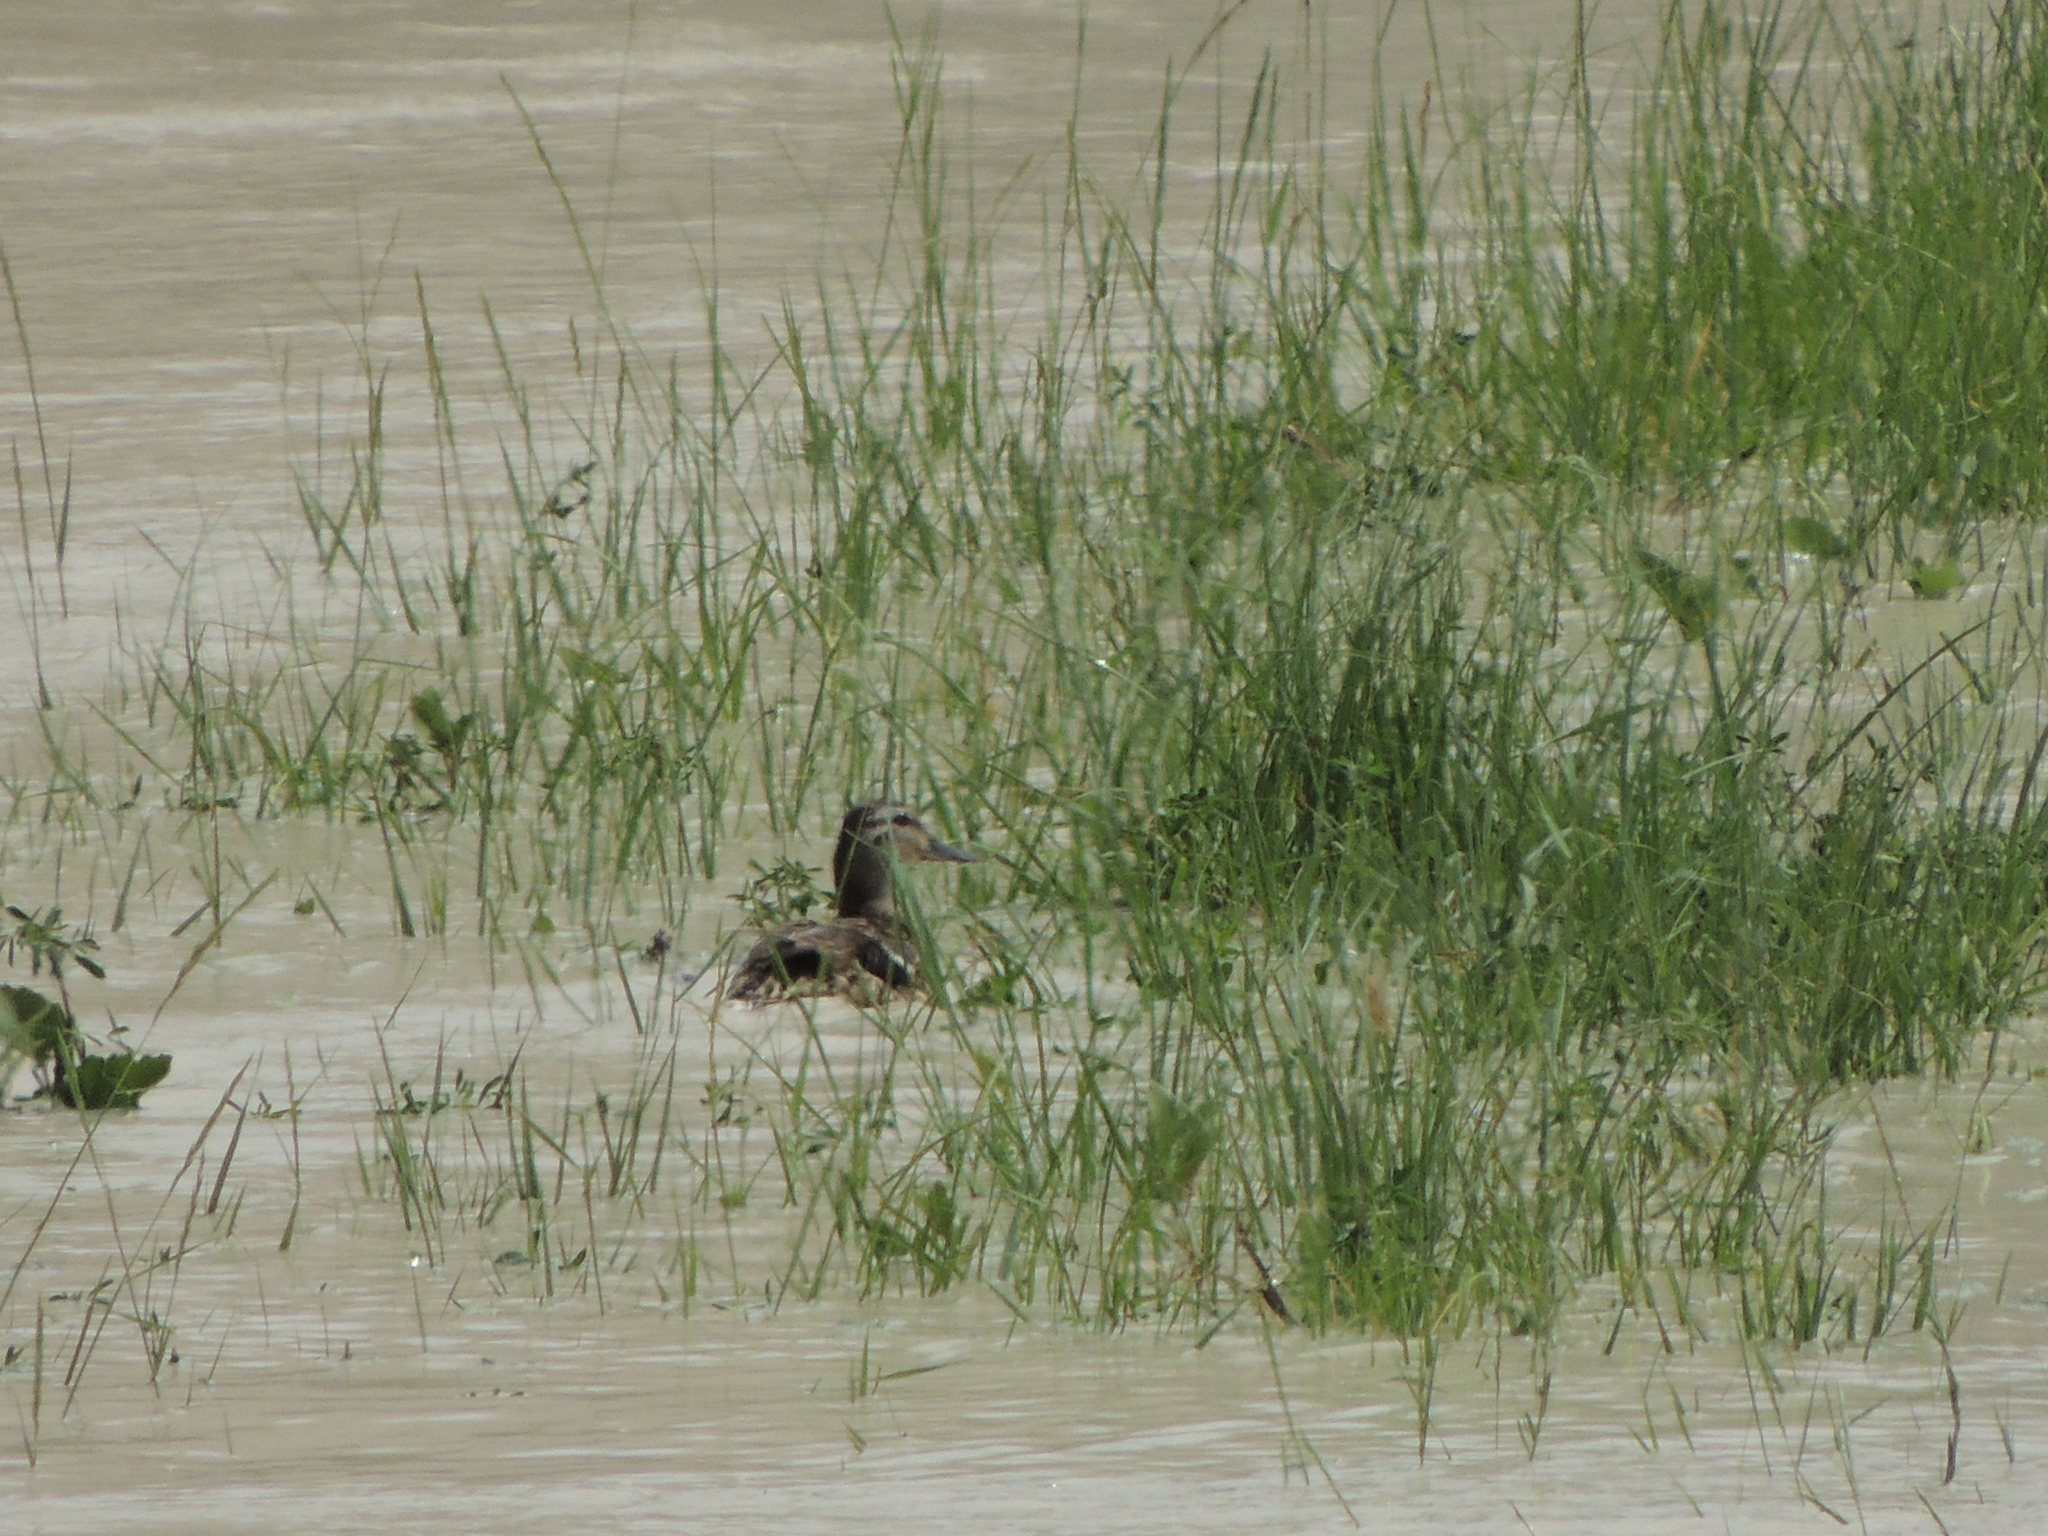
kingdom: Animalia
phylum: Chordata
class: Aves
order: Anseriformes
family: Anatidae
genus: Anas
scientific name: Anas platyrhynchos
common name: Mallard
